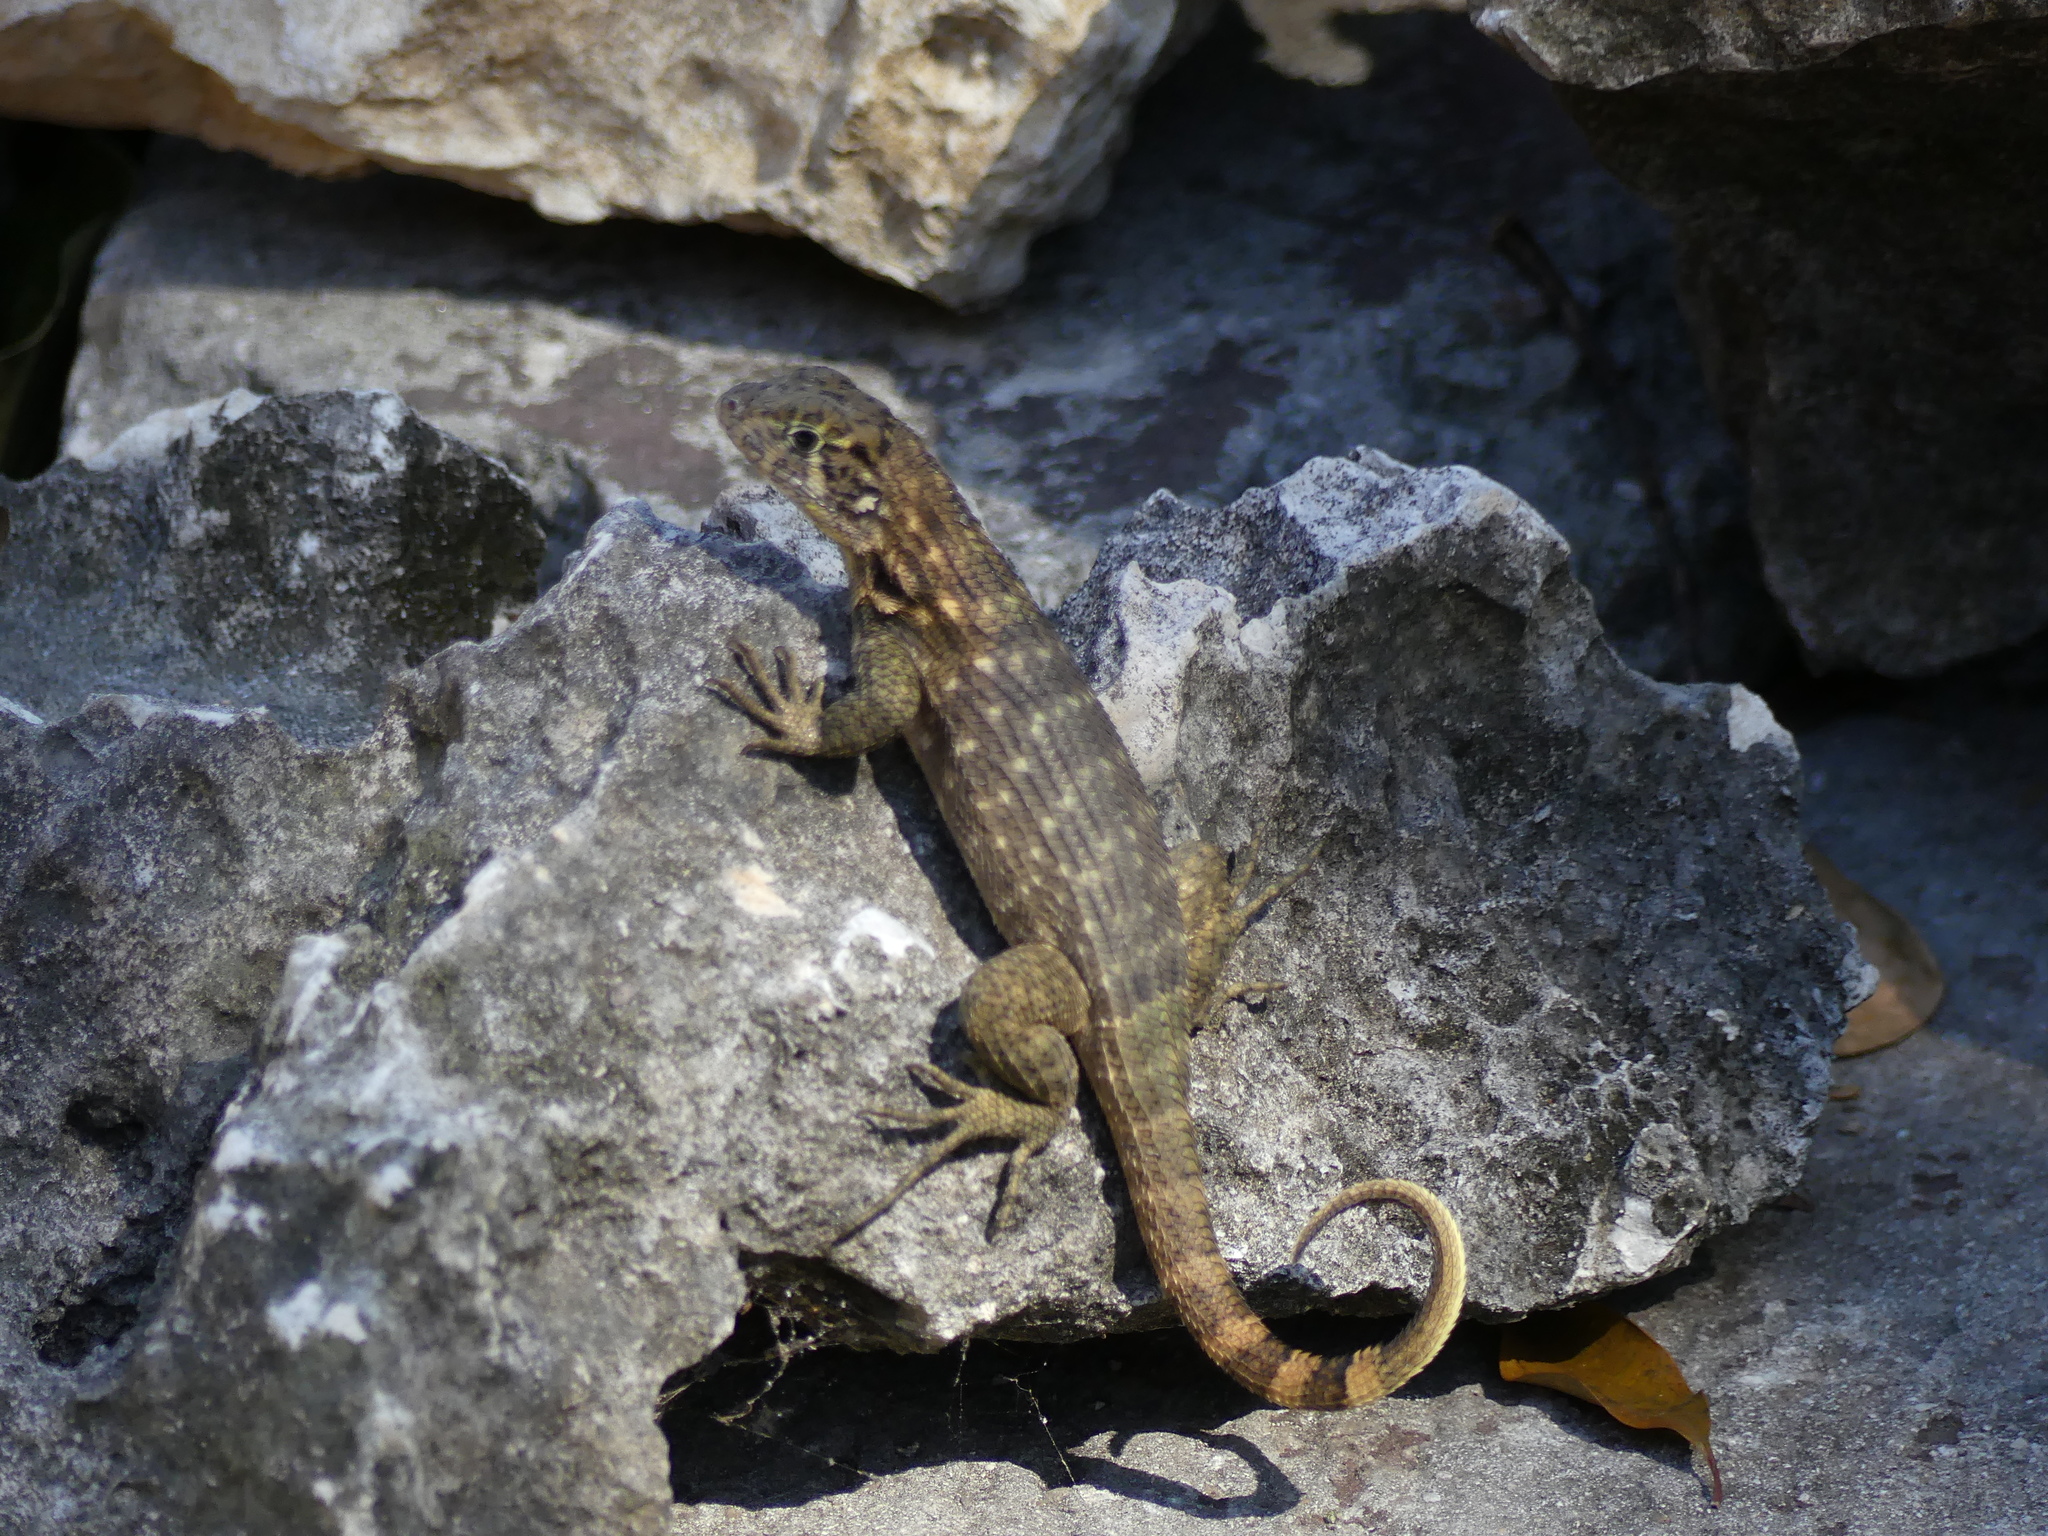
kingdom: Animalia
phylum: Chordata
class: Squamata
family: Leiocephalidae
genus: Leiocephalus
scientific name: Leiocephalus carinatus
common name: Northern curly-tailed lizard
